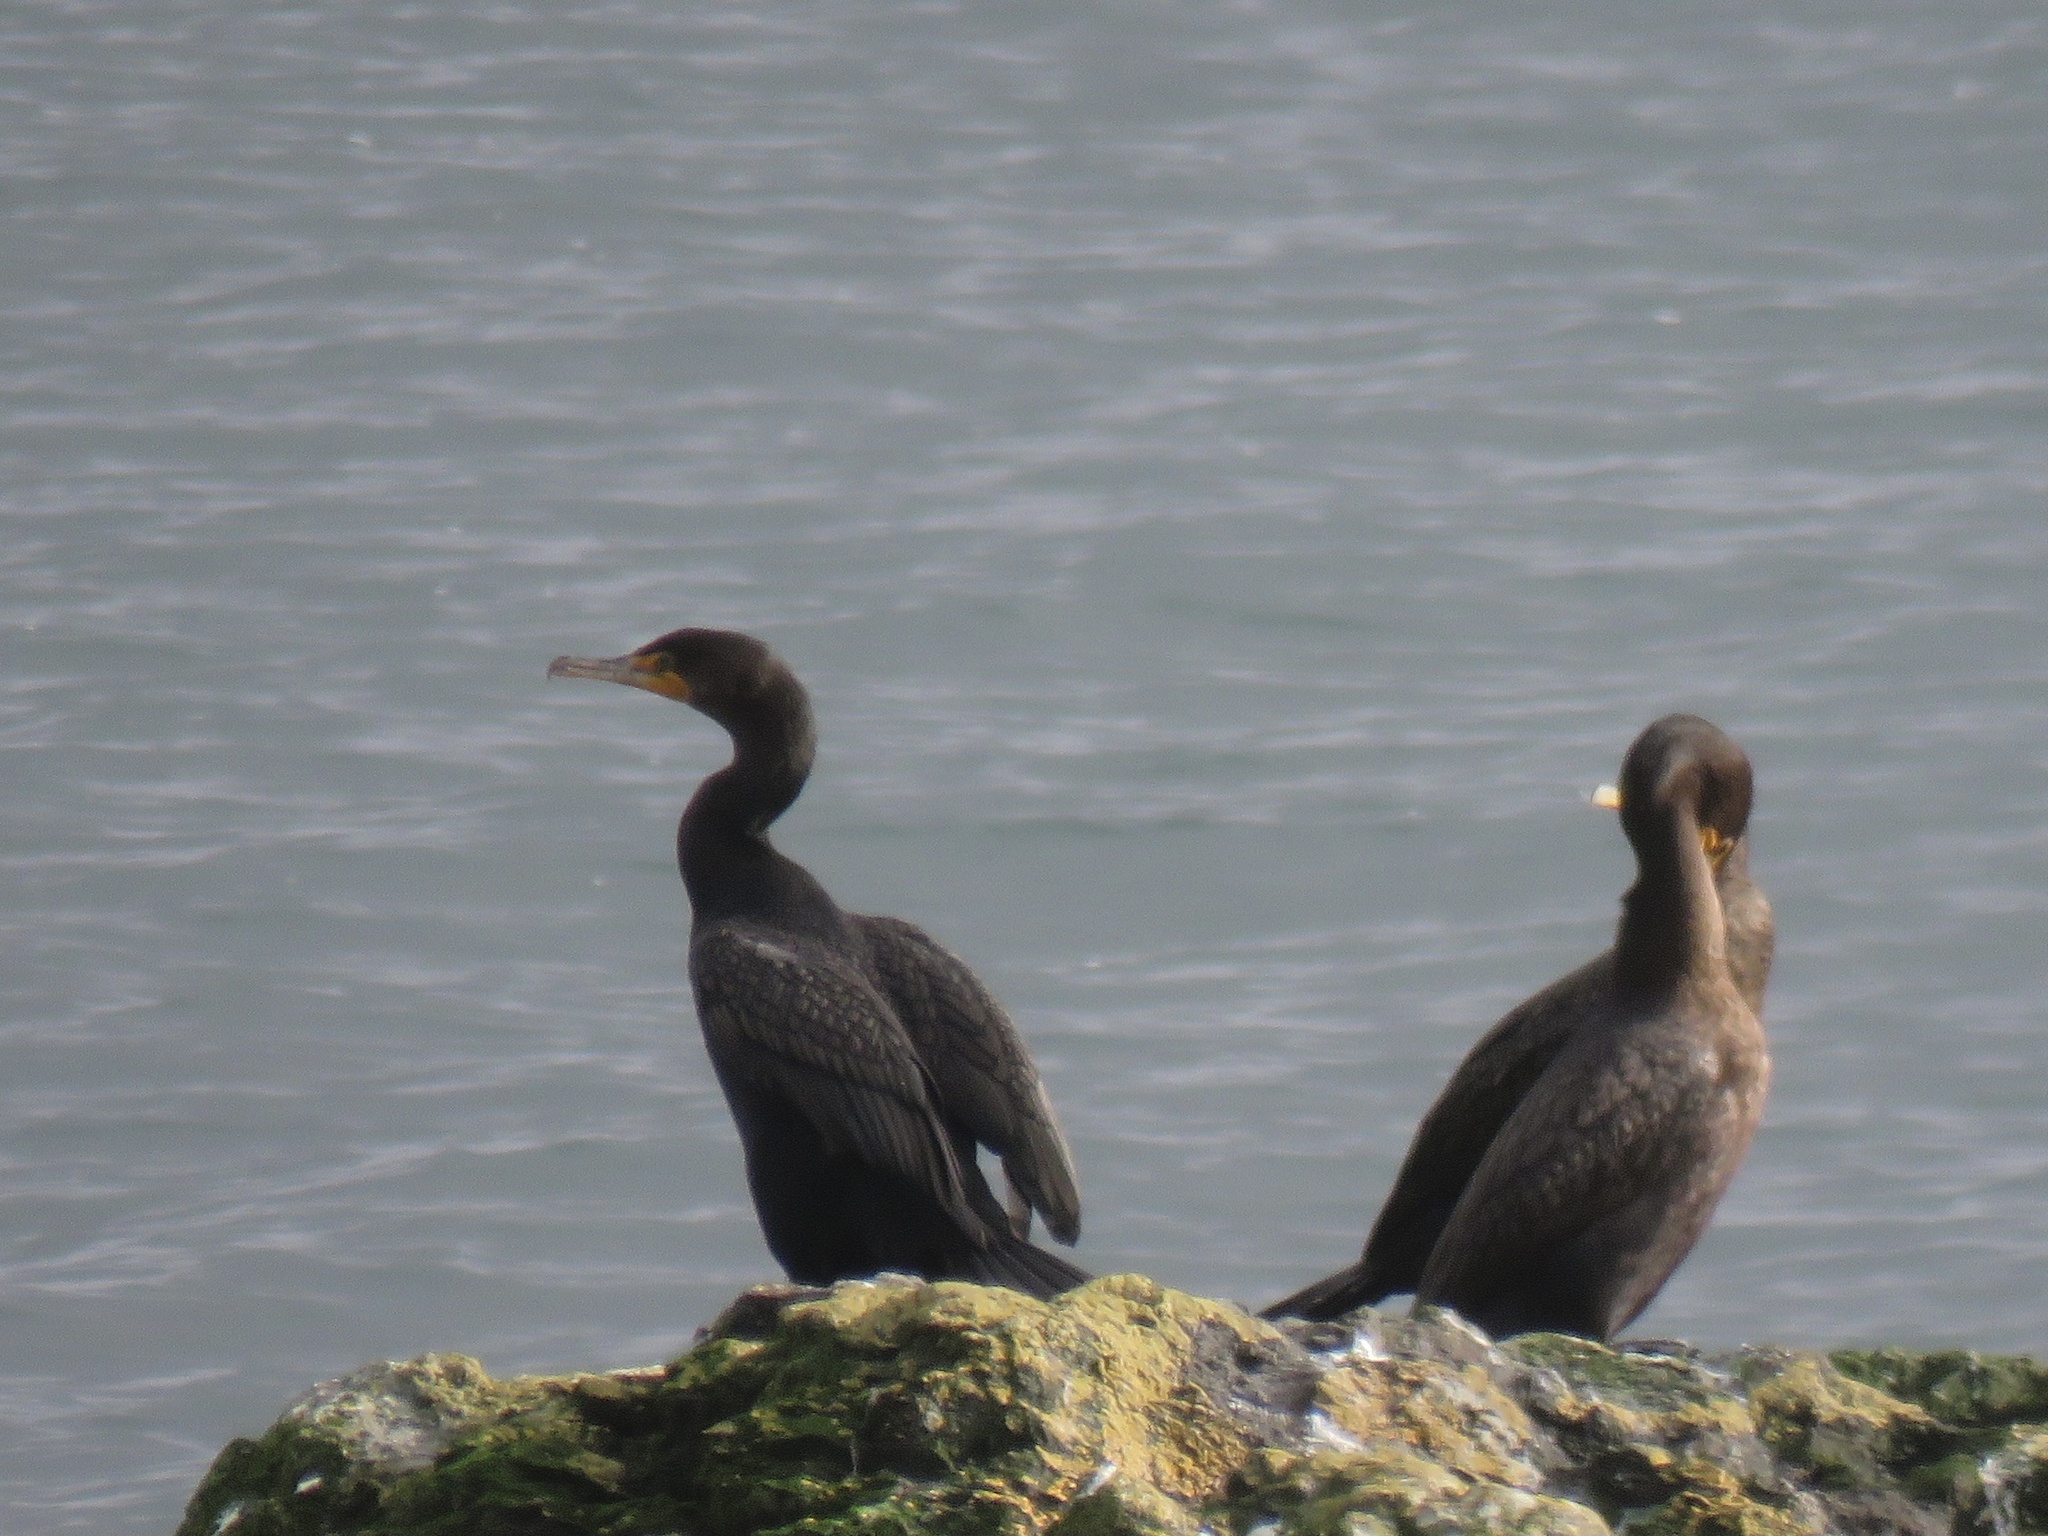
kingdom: Animalia
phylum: Chordata
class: Aves
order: Suliformes
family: Phalacrocoracidae
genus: Phalacrocorax
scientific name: Phalacrocorax auritus
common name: Double-crested cormorant
